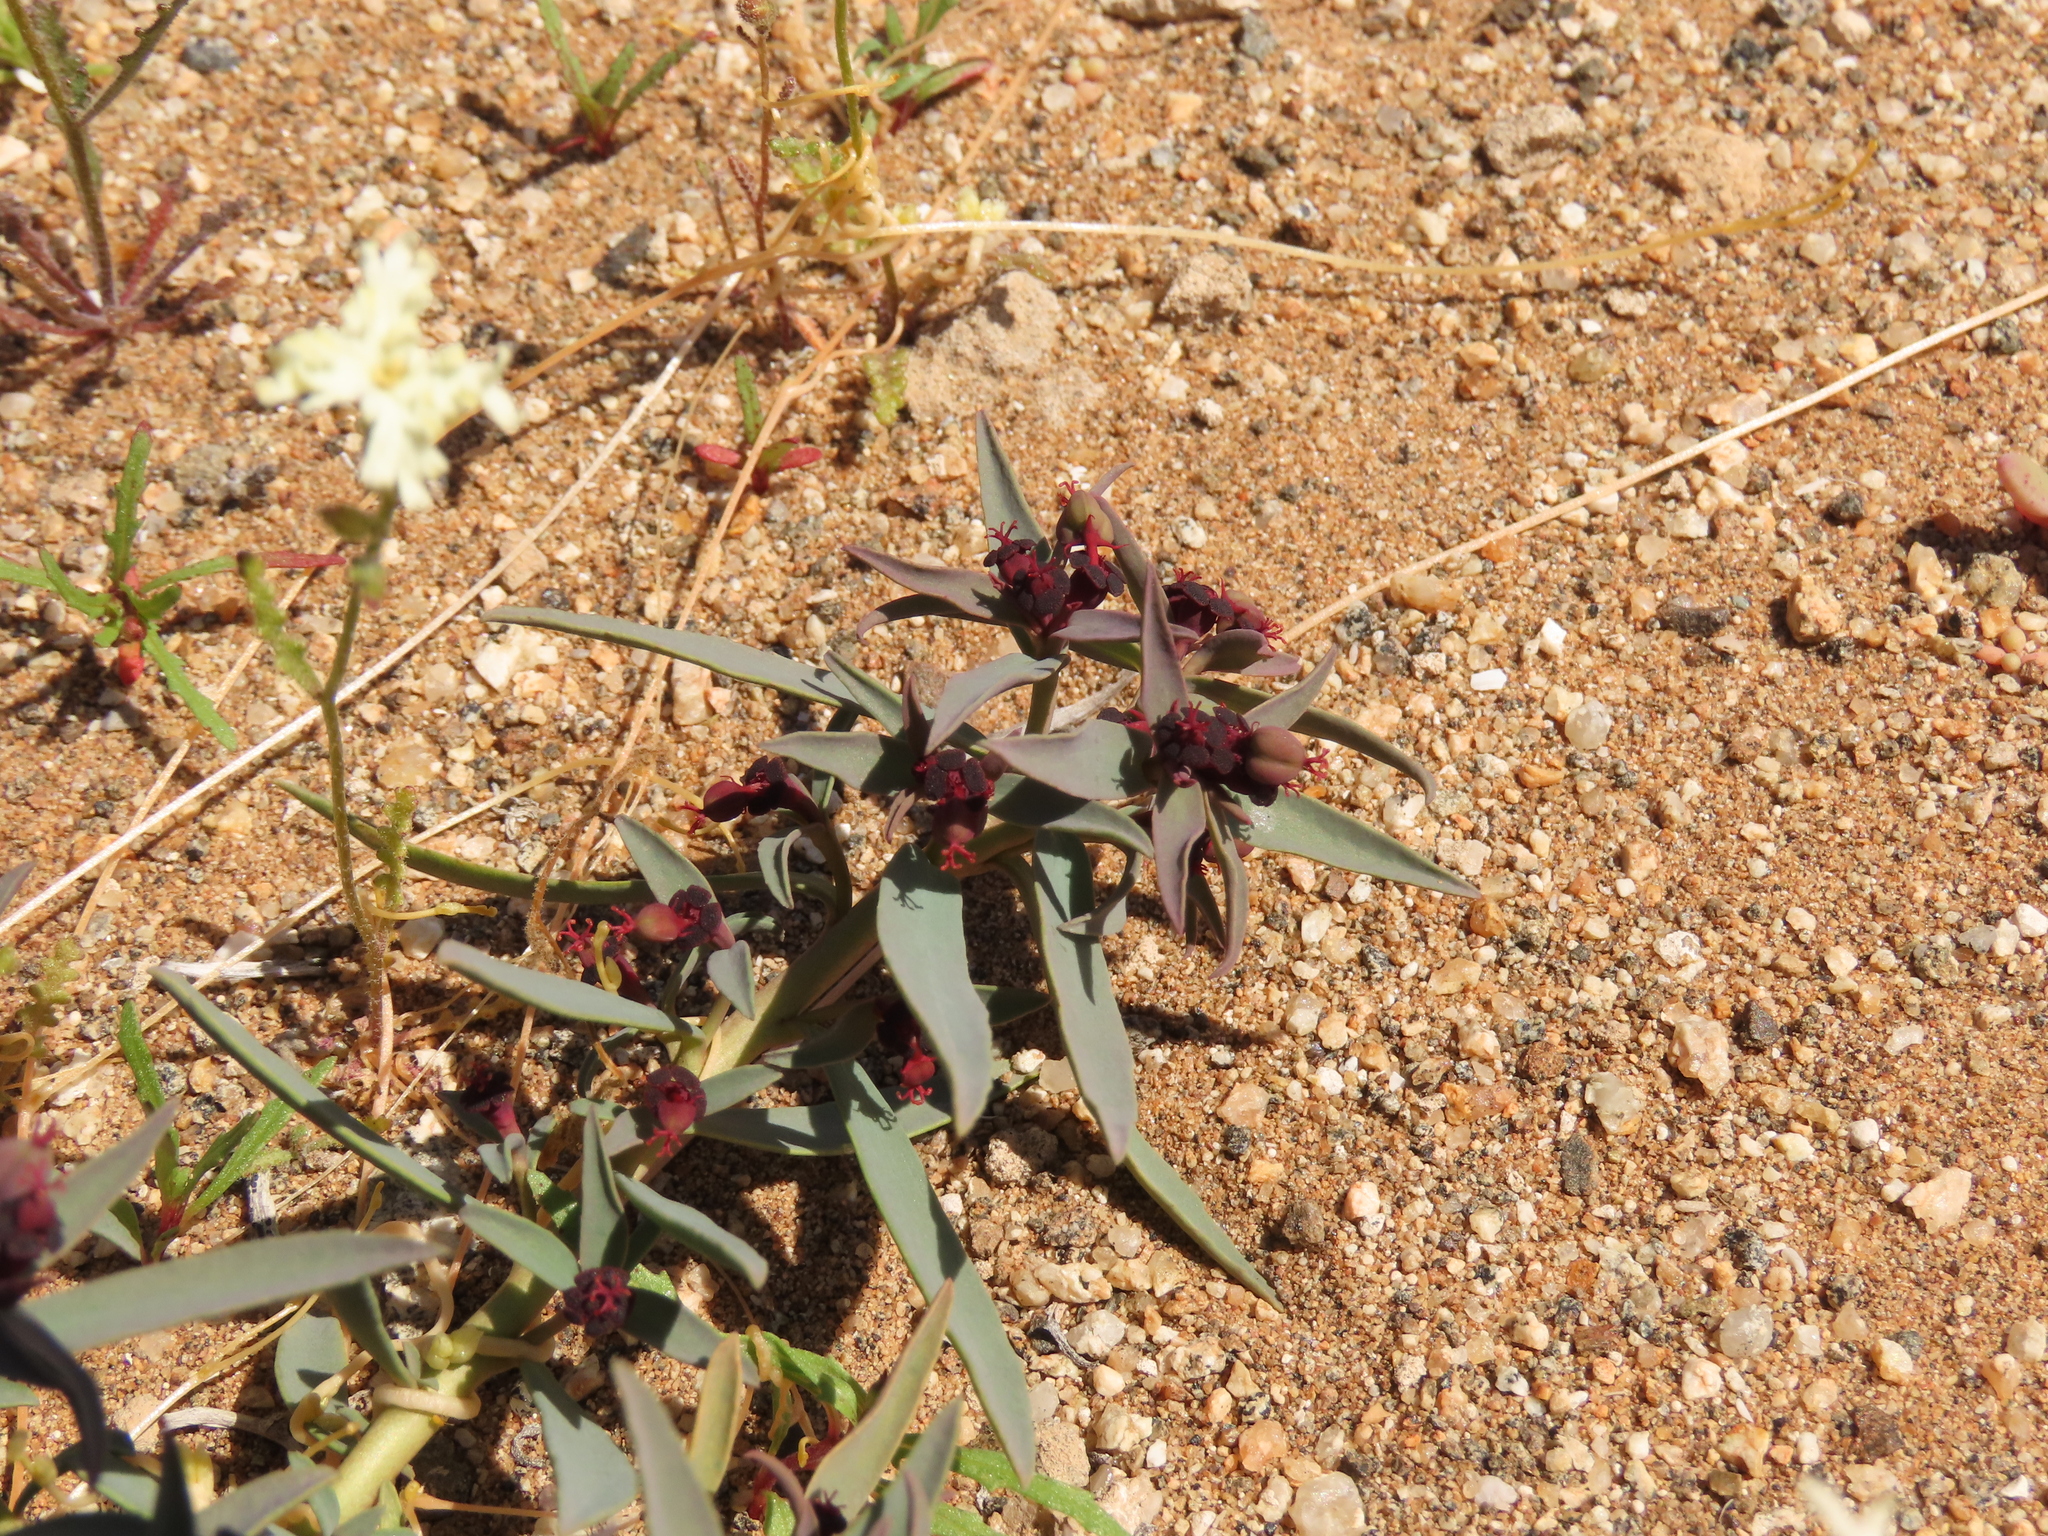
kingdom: Plantae
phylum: Tracheophyta
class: Magnoliopsida
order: Malpighiales
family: Euphorbiaceae
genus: Euphorbia
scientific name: Euphorbia thinophila
